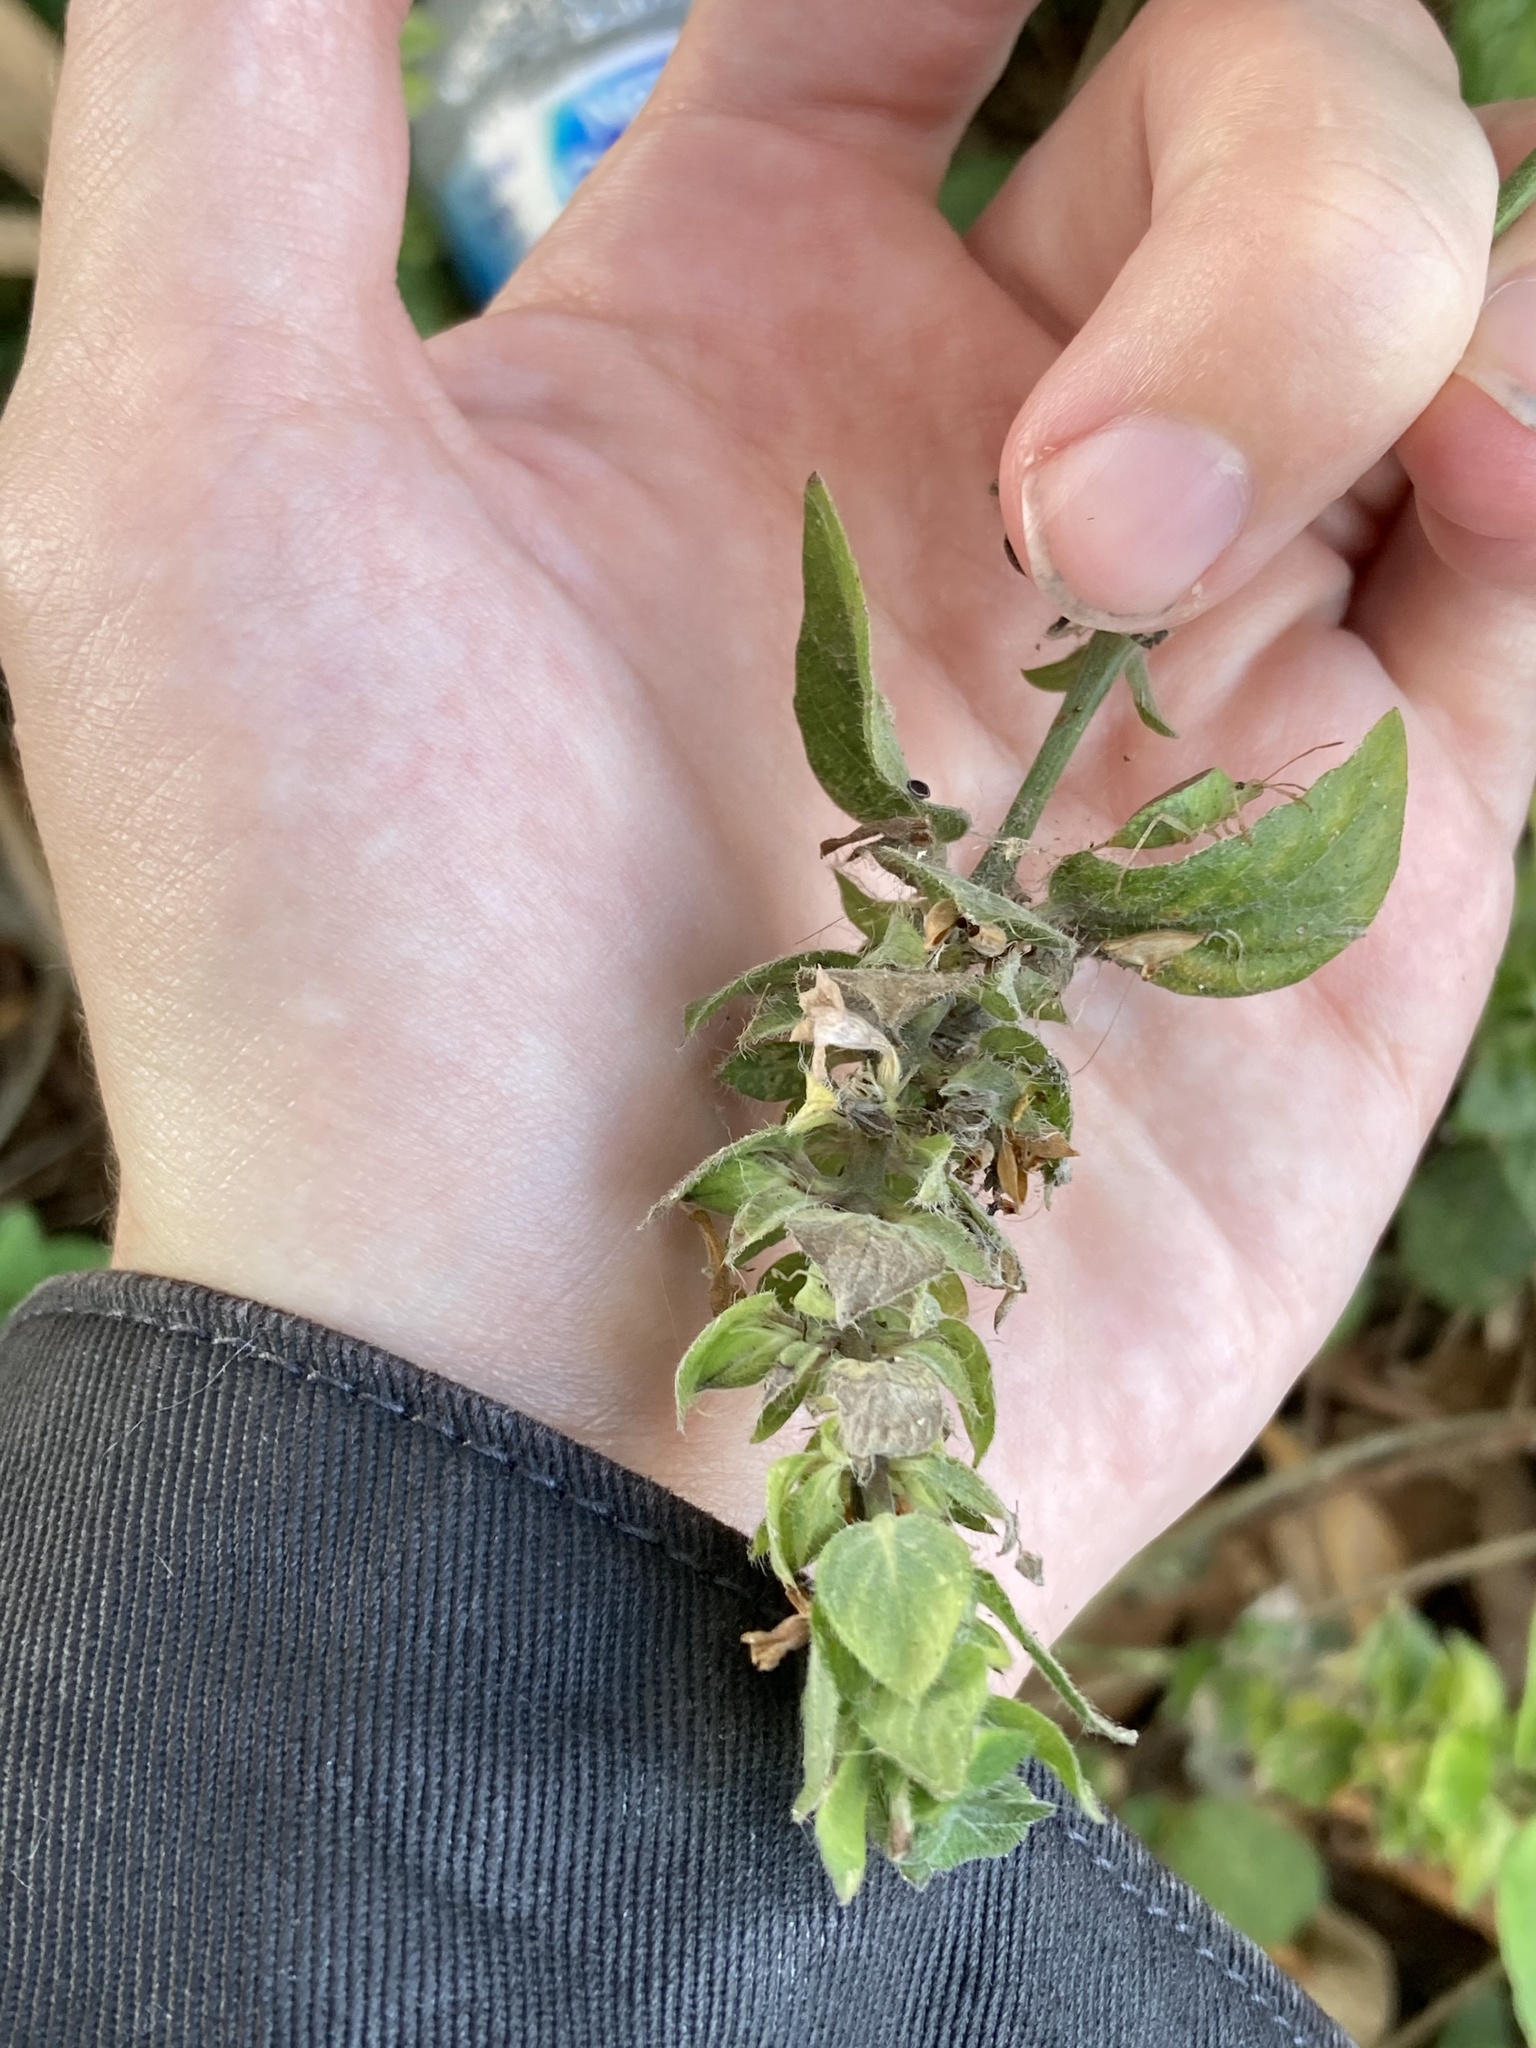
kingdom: Plantae
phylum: Tracheophyta
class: Magnoliopsida
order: Lamiales
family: Acanthaceae
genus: Ruellia
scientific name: Ruellia blechum
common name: Browne's blechum
